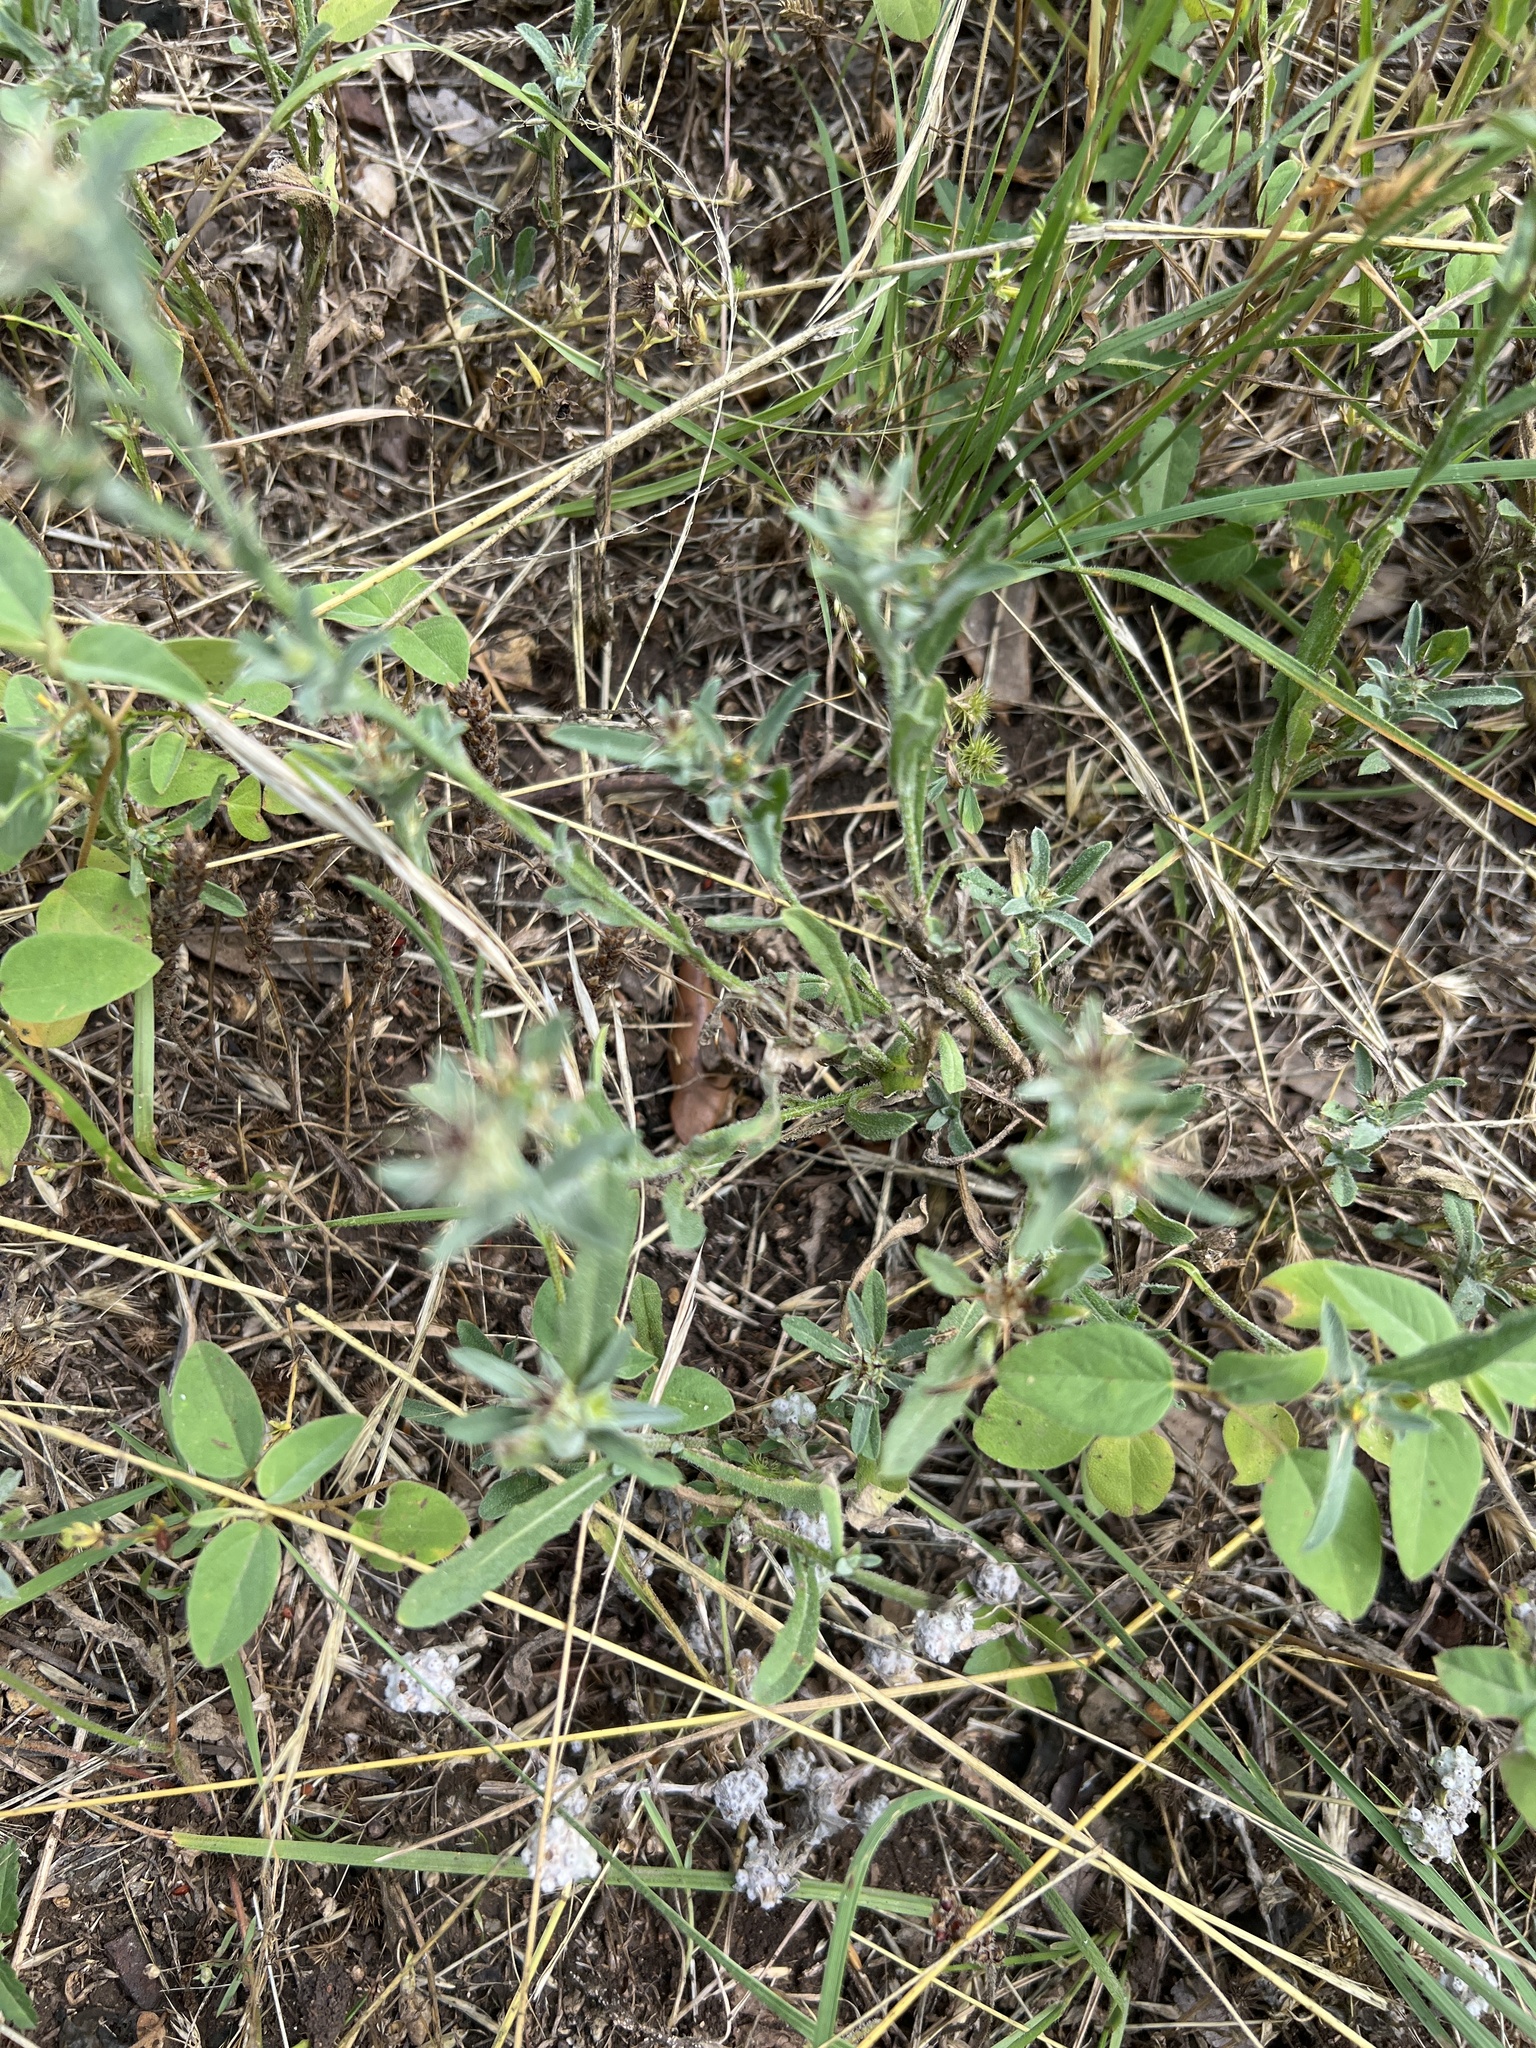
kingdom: Plantae
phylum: Tracheophyta
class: Magnoliopsida
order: Asterales
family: Asteraceae
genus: Centaurea
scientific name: Centaurea melitensis
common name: Maltese star-thistle
